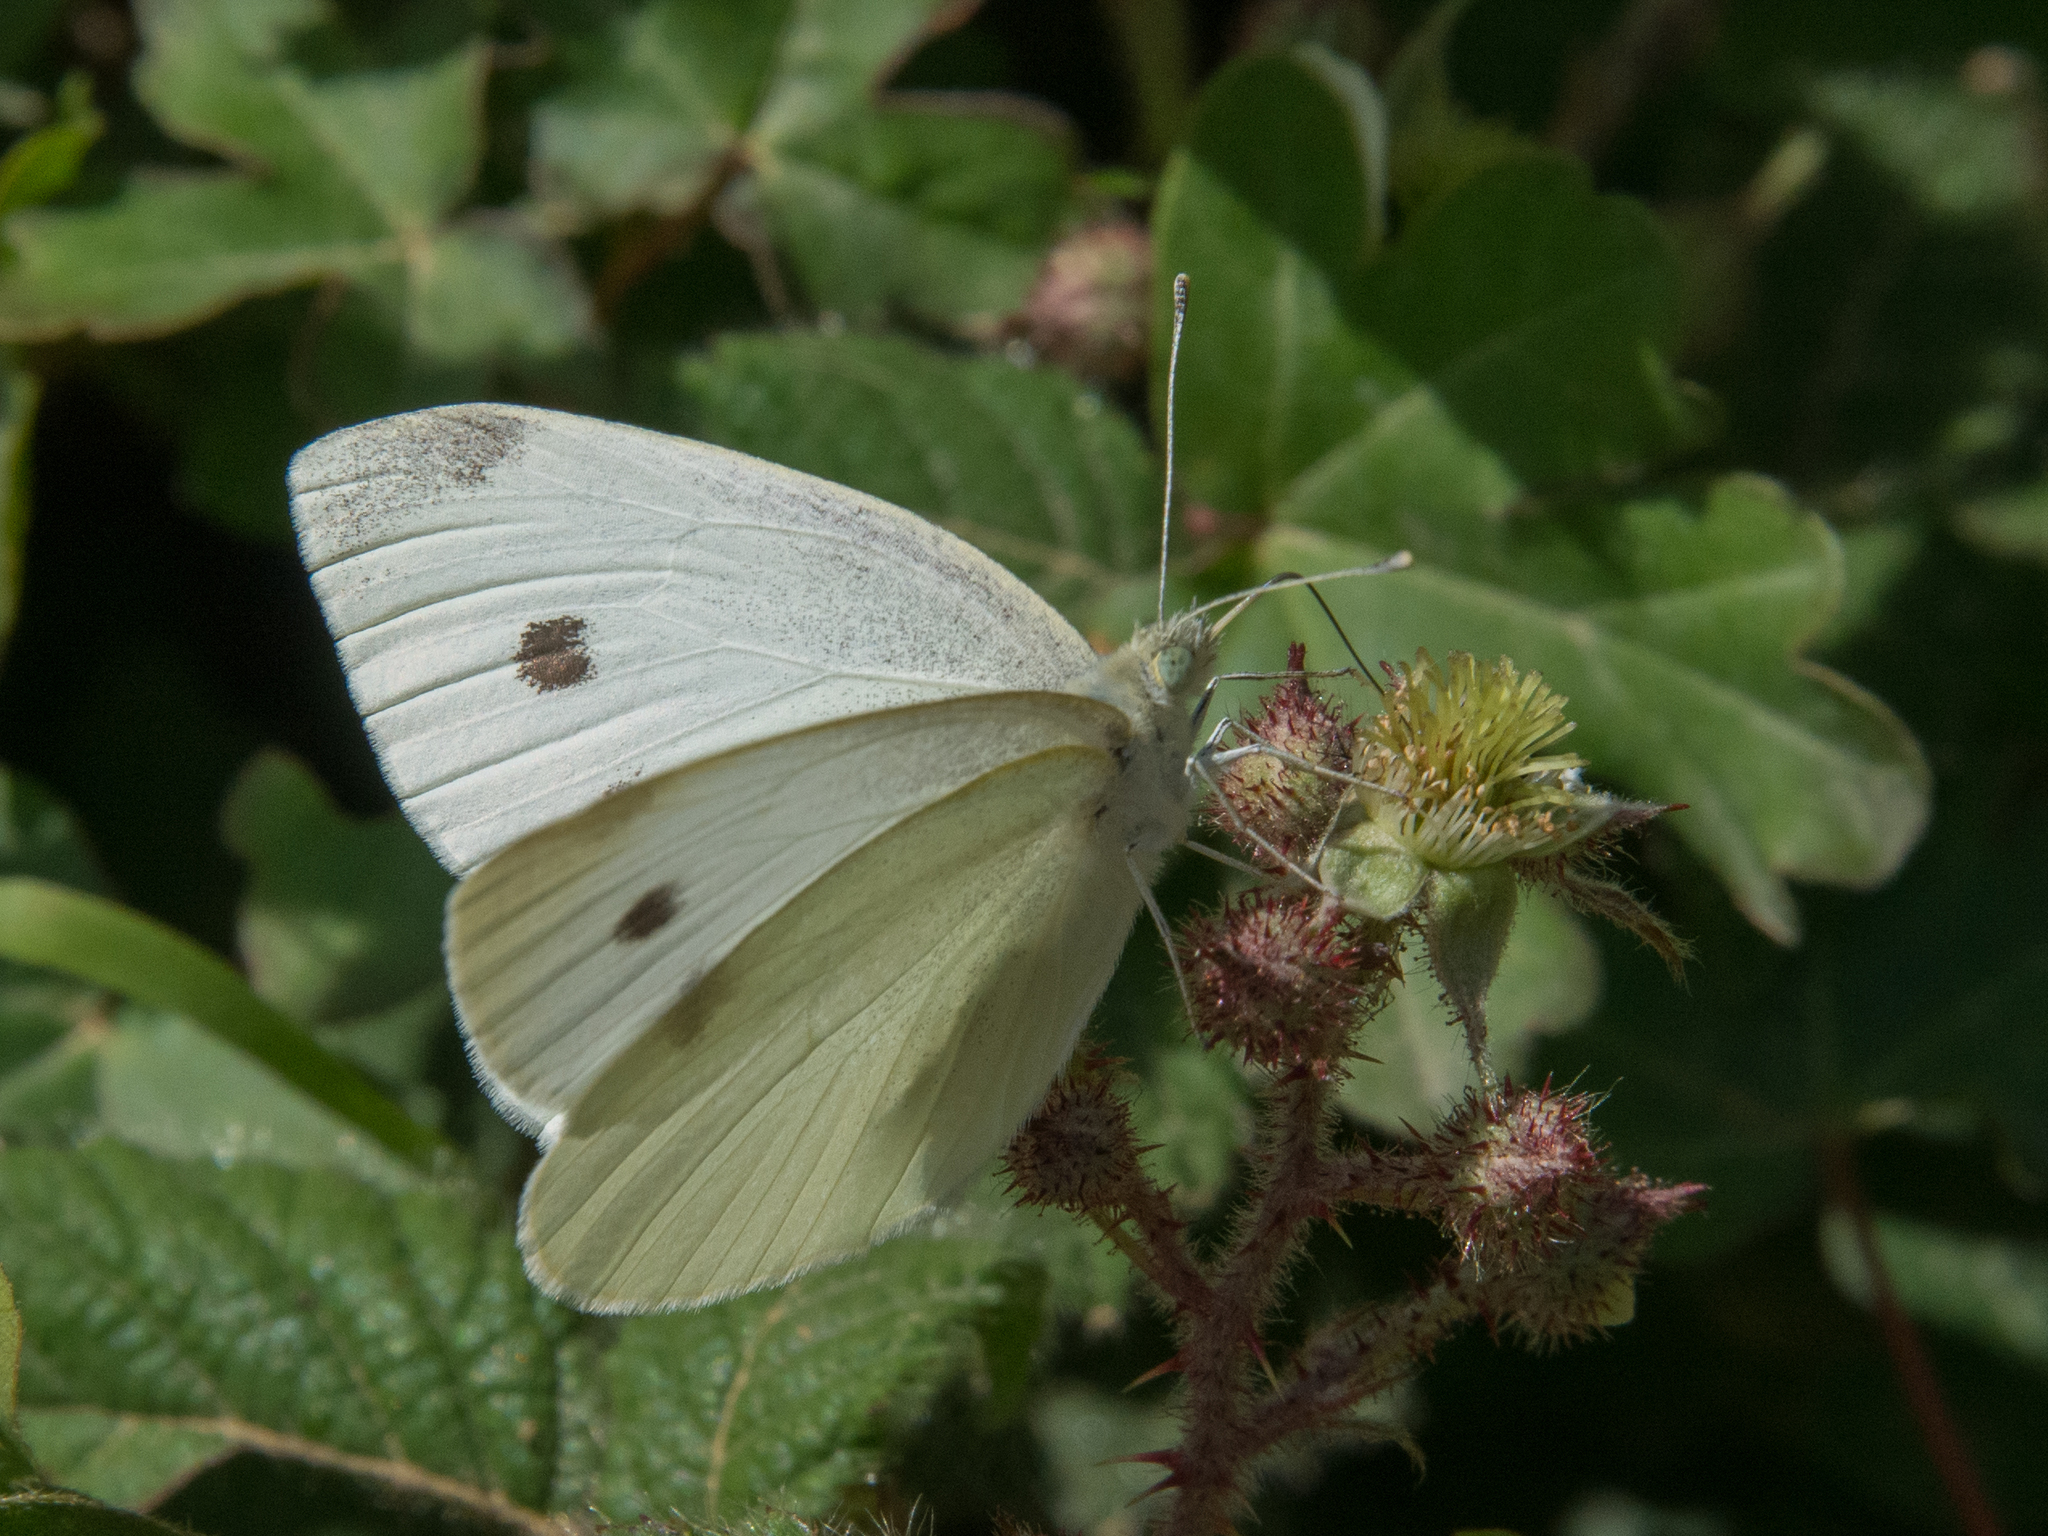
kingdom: Animalia
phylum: Arthropoda
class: Insecta
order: Lepidoptera
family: Pieridae
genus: Pieris
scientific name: Pieris rapae
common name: Small white
